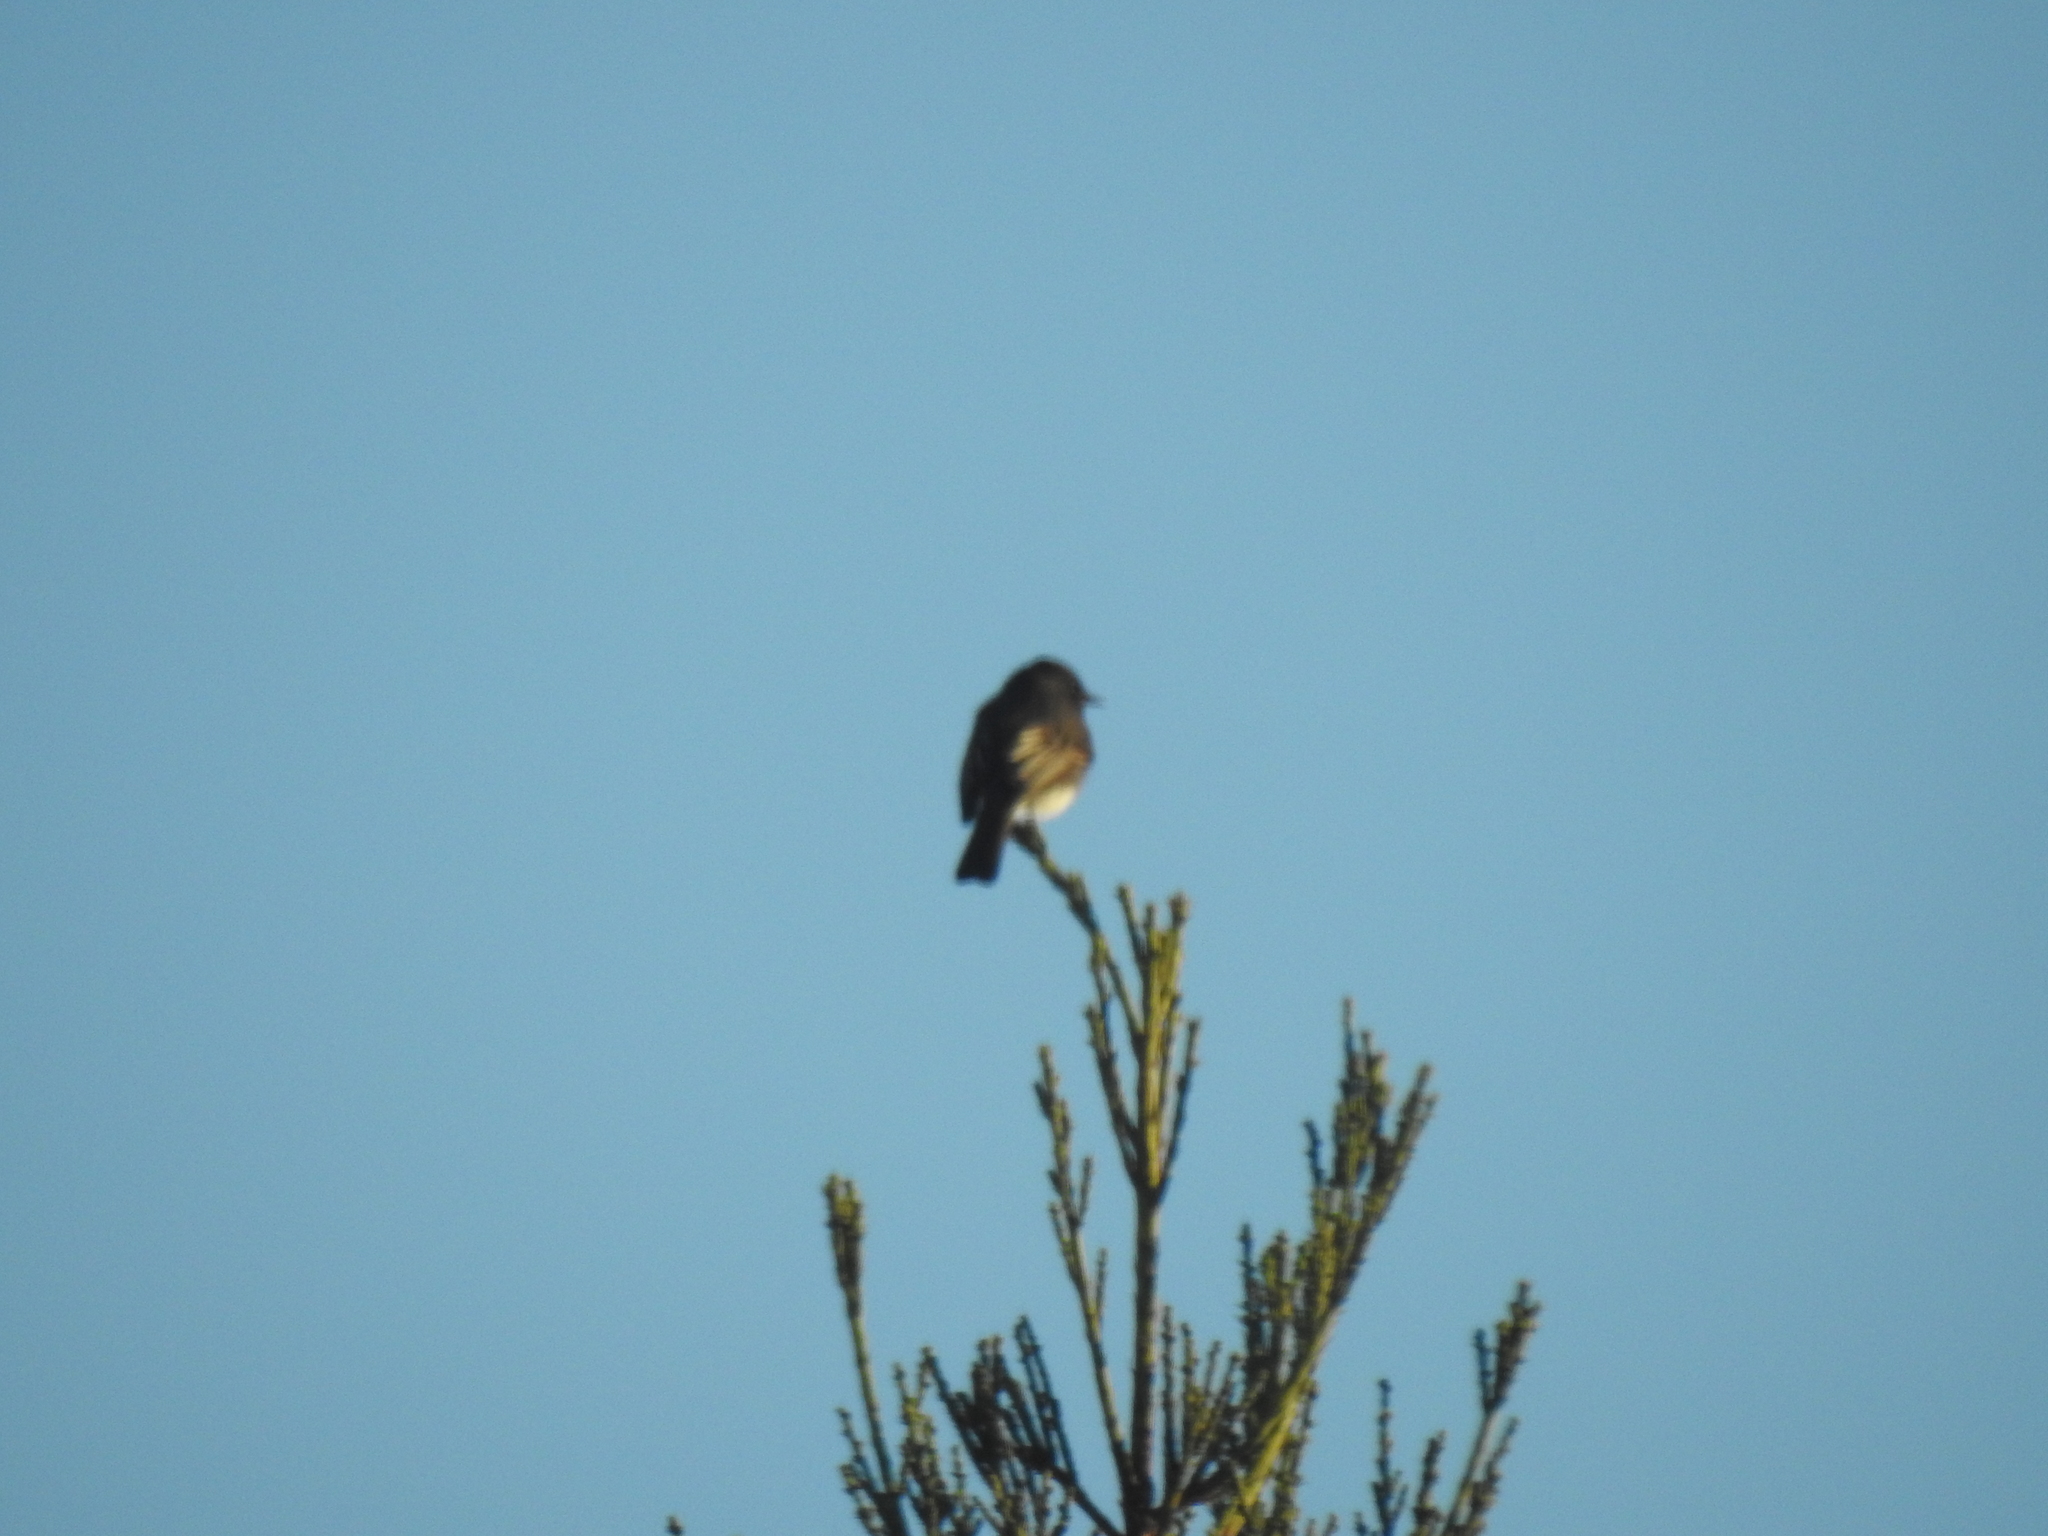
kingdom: Animalia
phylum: Chordata
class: Aves
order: Passeriformes
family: Tyrannidae
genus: Sayornis
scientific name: Sayornis nigricans
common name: Black phoebe
